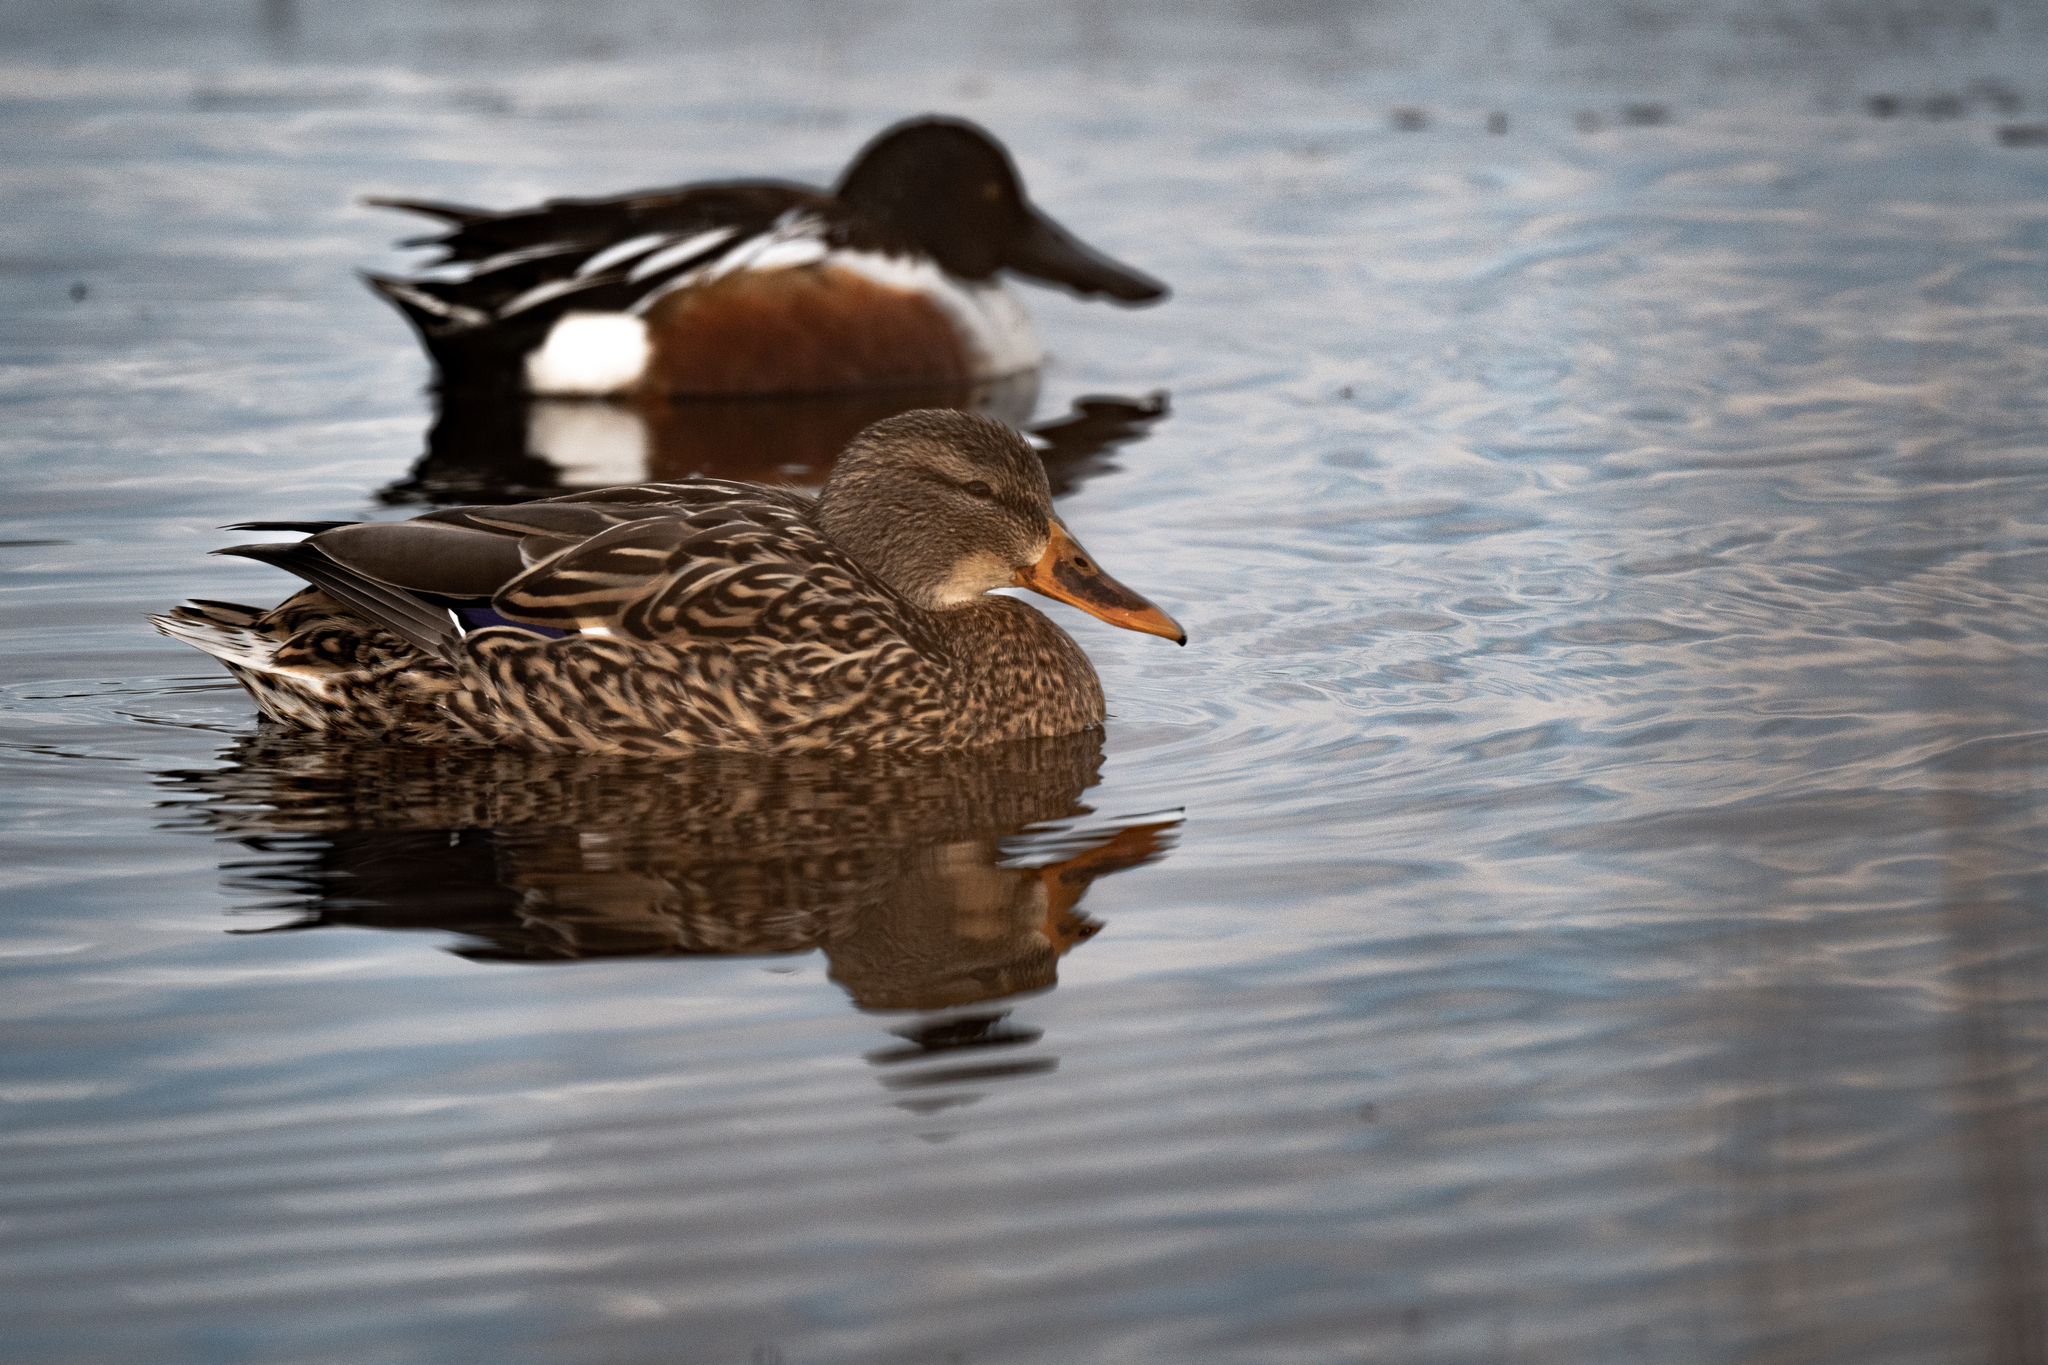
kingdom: Animalia
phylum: Chordata
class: Aves
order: Anseriformes
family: Anatidae
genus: Anas
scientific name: Anas platyrhynchos
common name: Mallard
